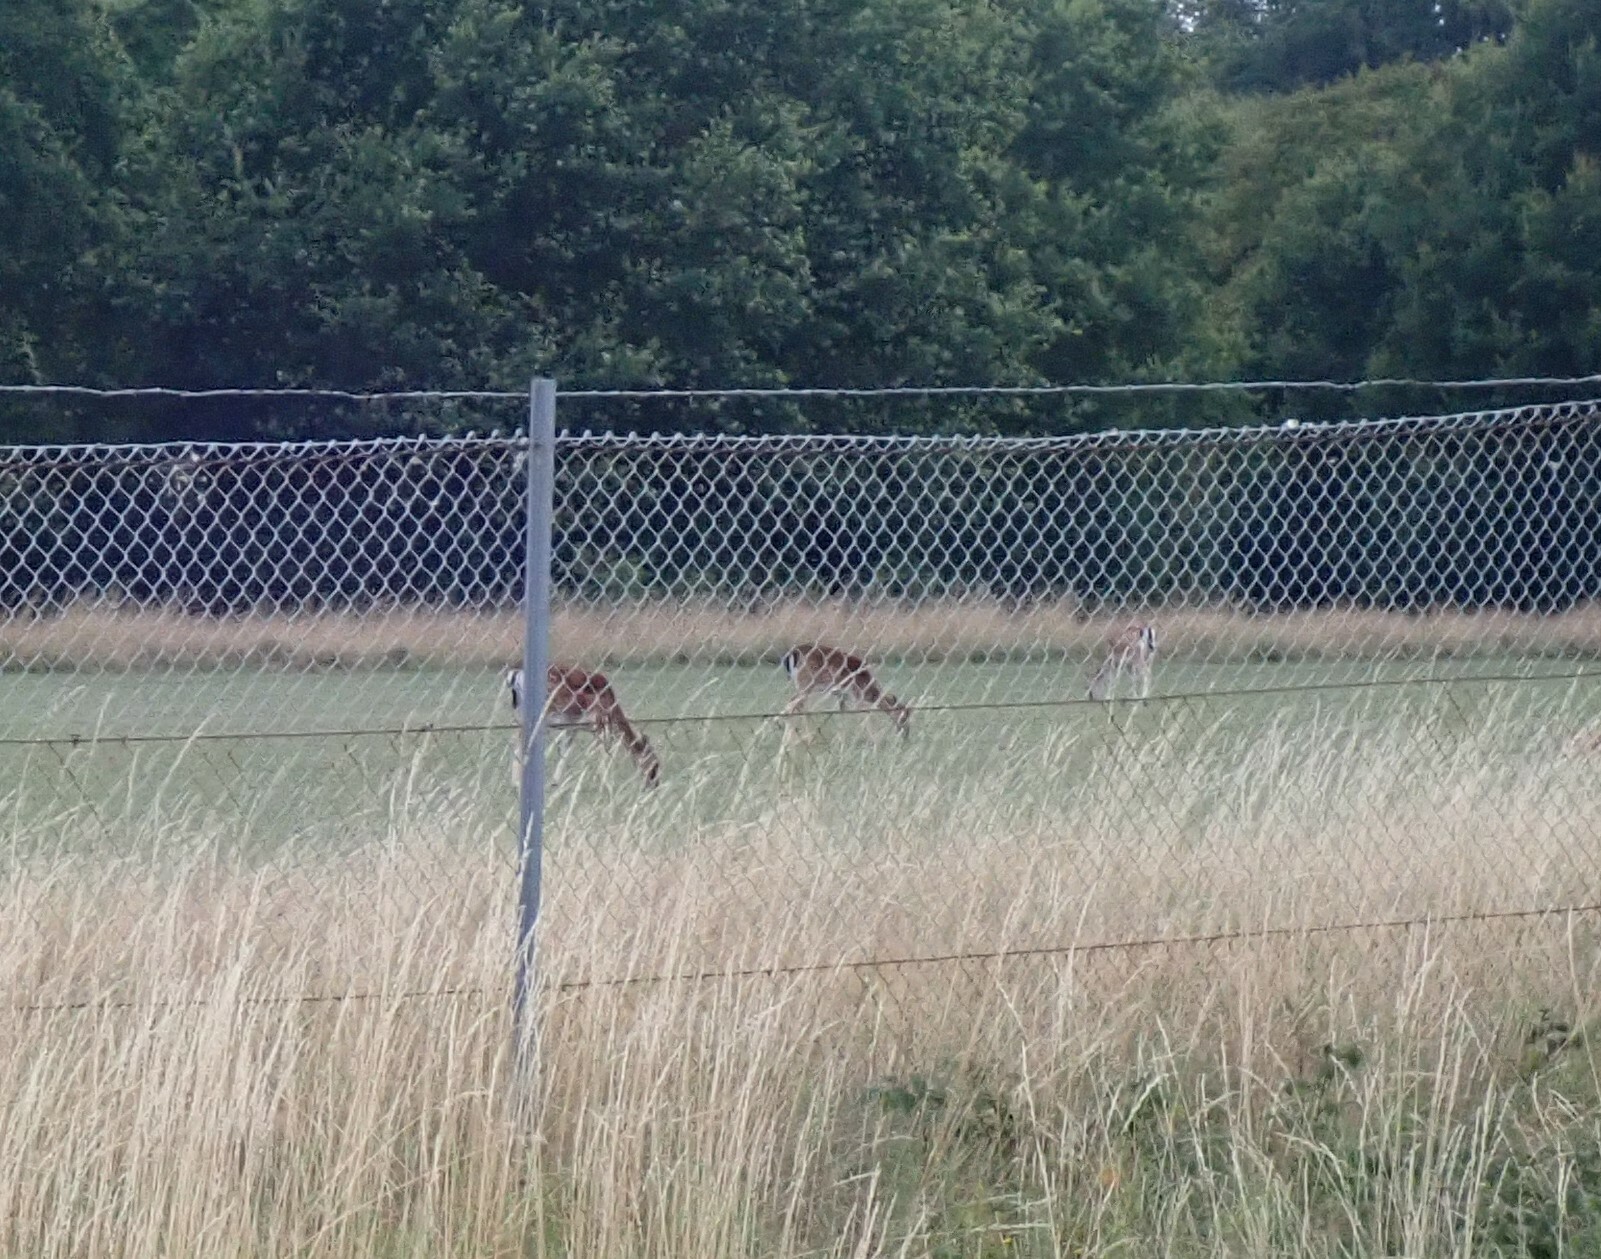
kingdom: Animalia
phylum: Chordata
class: Mammalia
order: Artiodactyla
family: Cervidae
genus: Dama
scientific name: Dama dama
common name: Fallow deer
